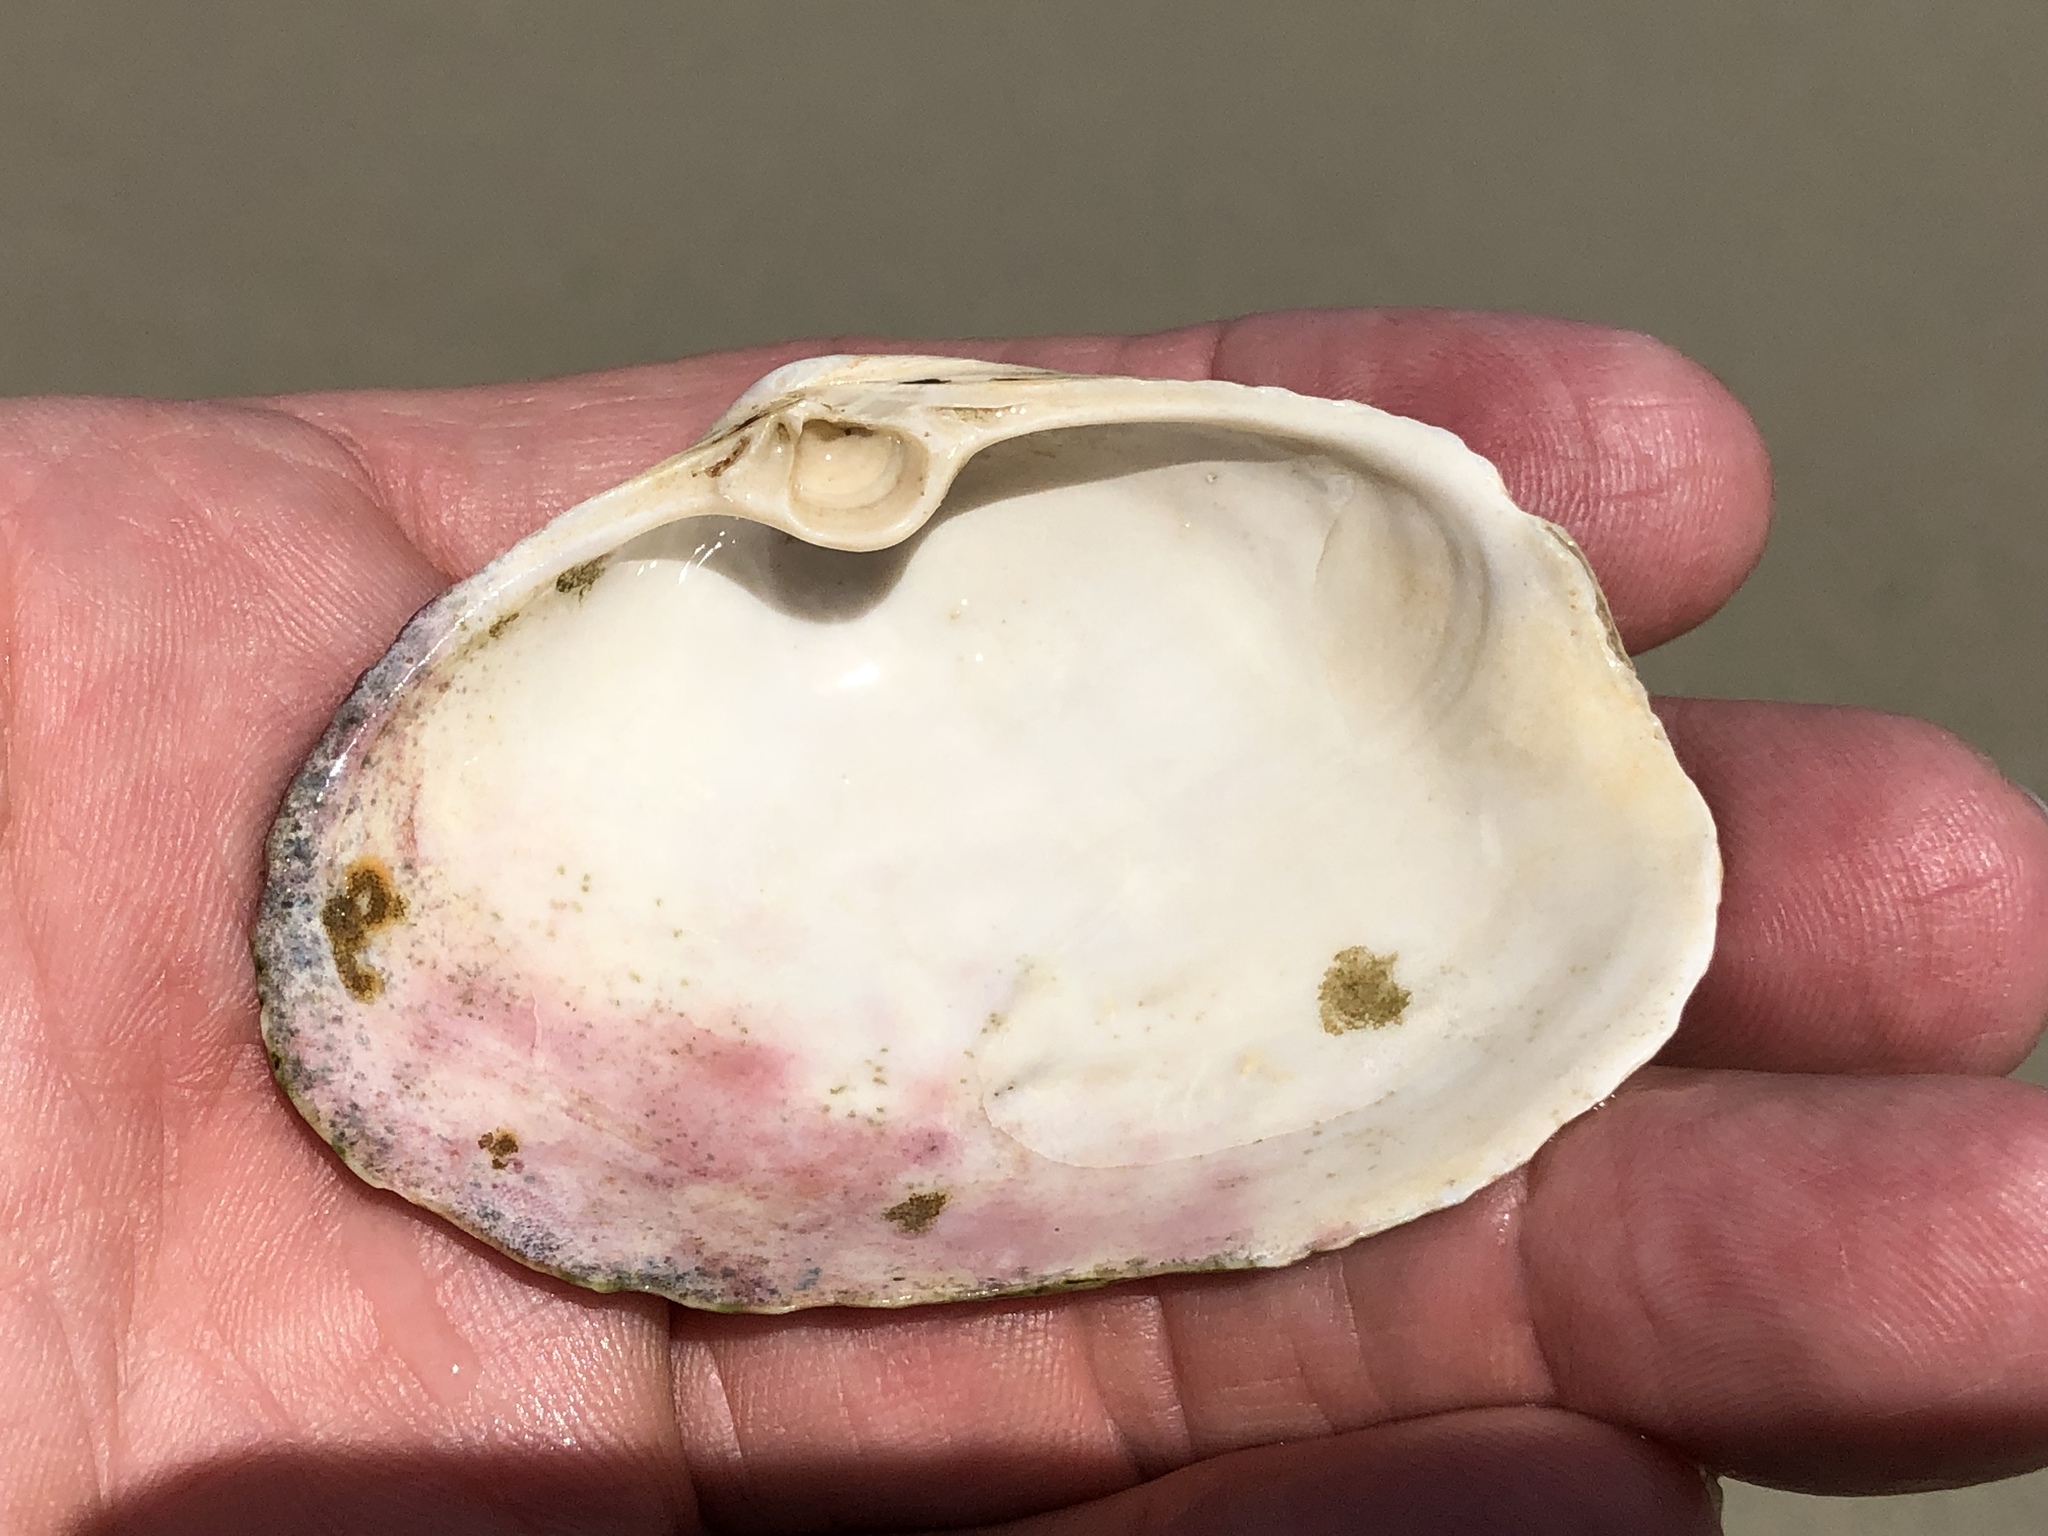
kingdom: Animalia
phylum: Mollusca
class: Bivalvia
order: Venerida
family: Mactridae
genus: Tresus
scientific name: Tresus nuttallii
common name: Pacific gaper clam
